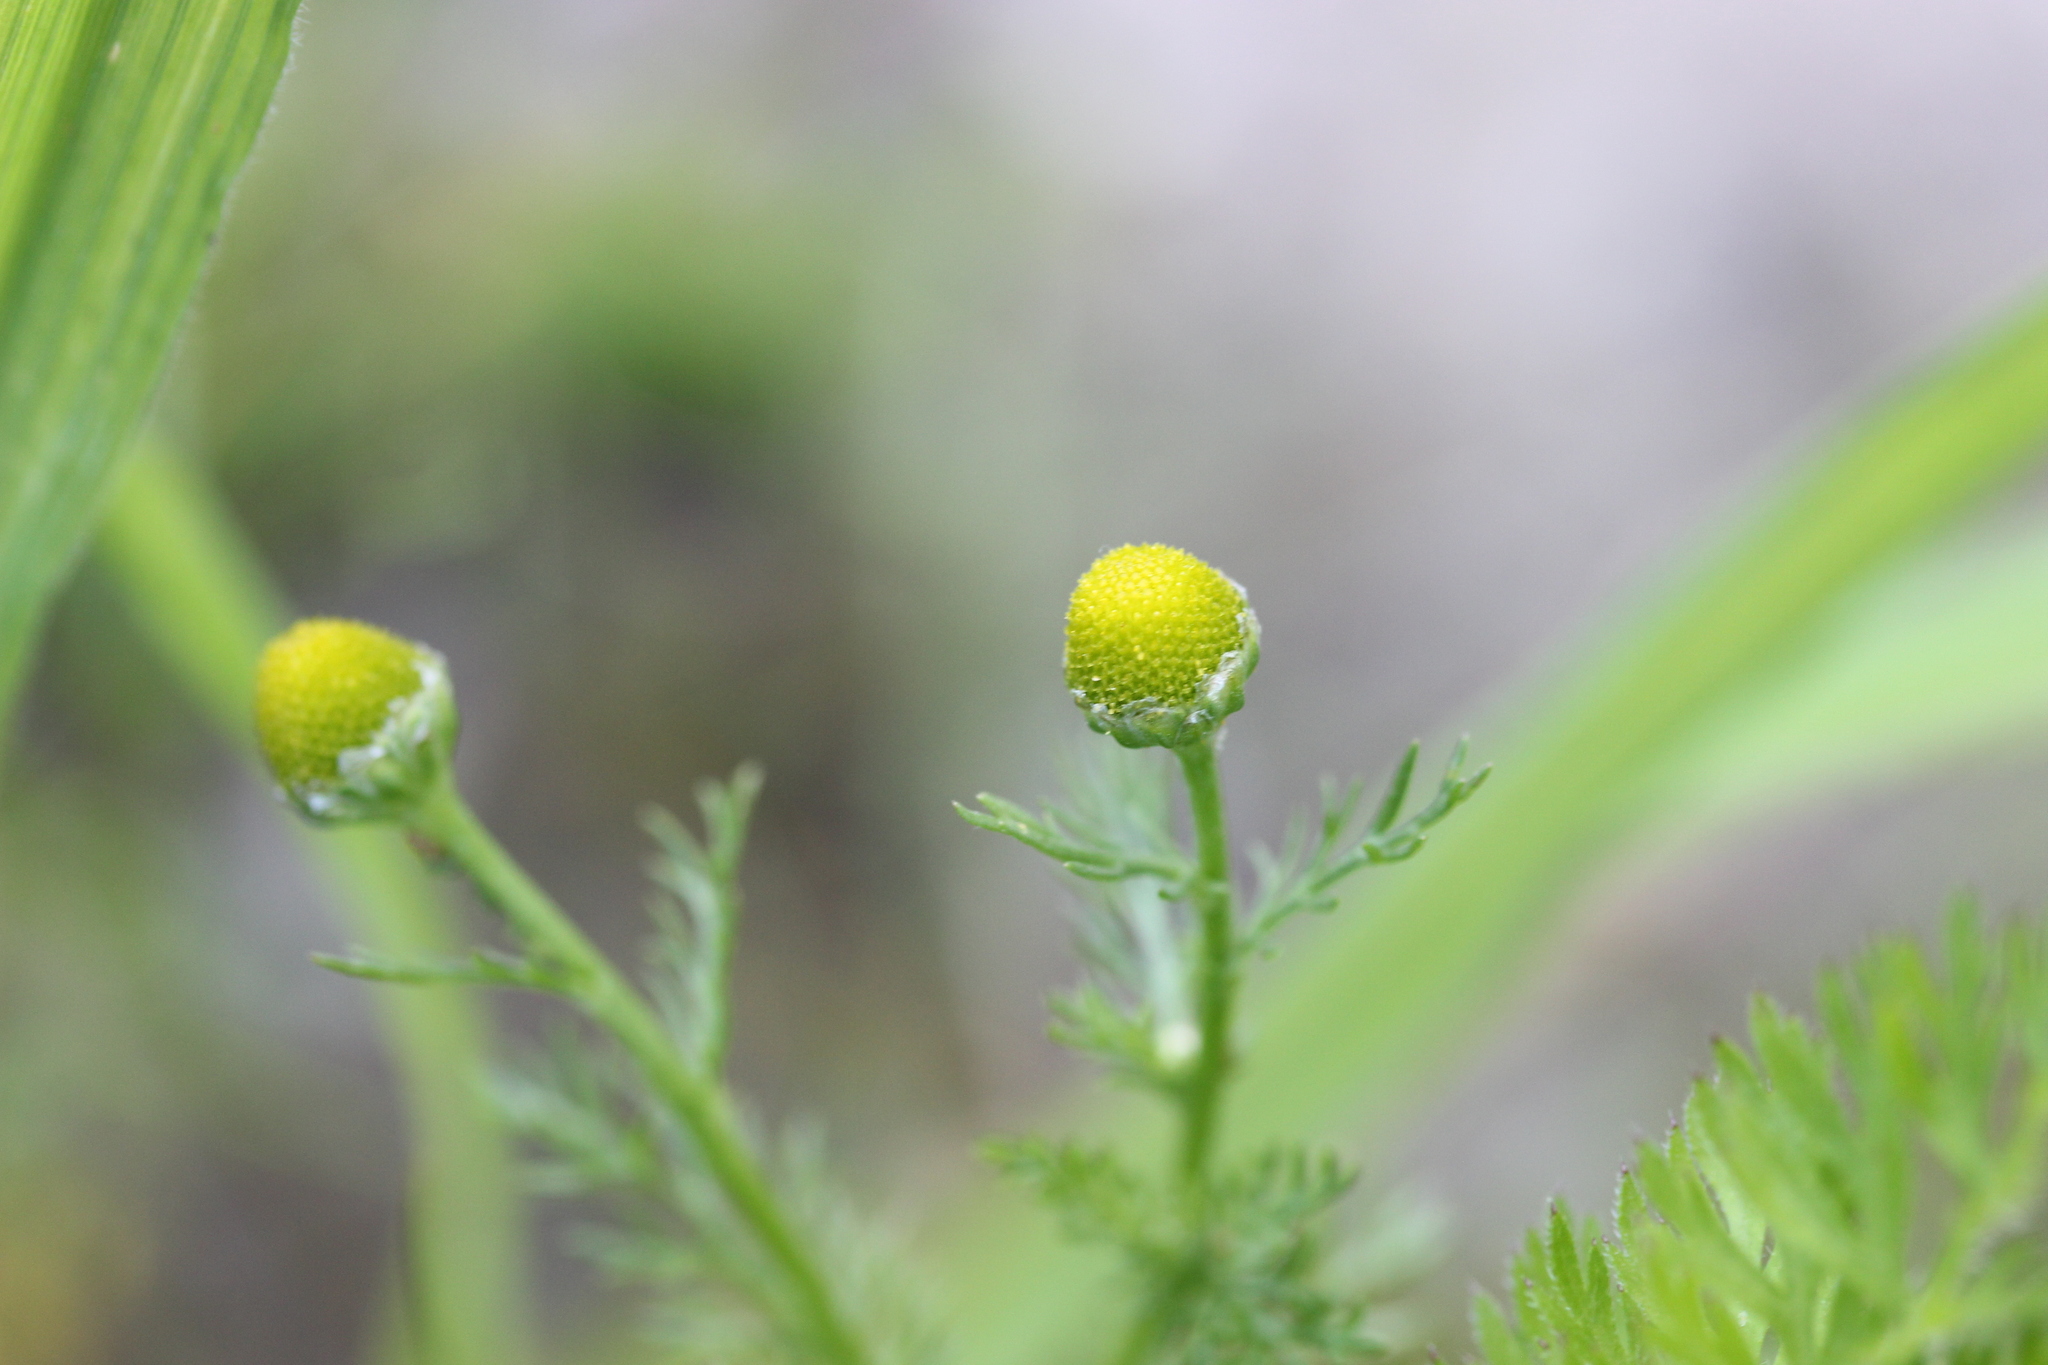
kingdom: Plantae
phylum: Tracheophyta
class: Magnoliopsida
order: Asterales
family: Asteraceae
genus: Matricaria
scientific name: Matricaria discoidea
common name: Disc mayweed
